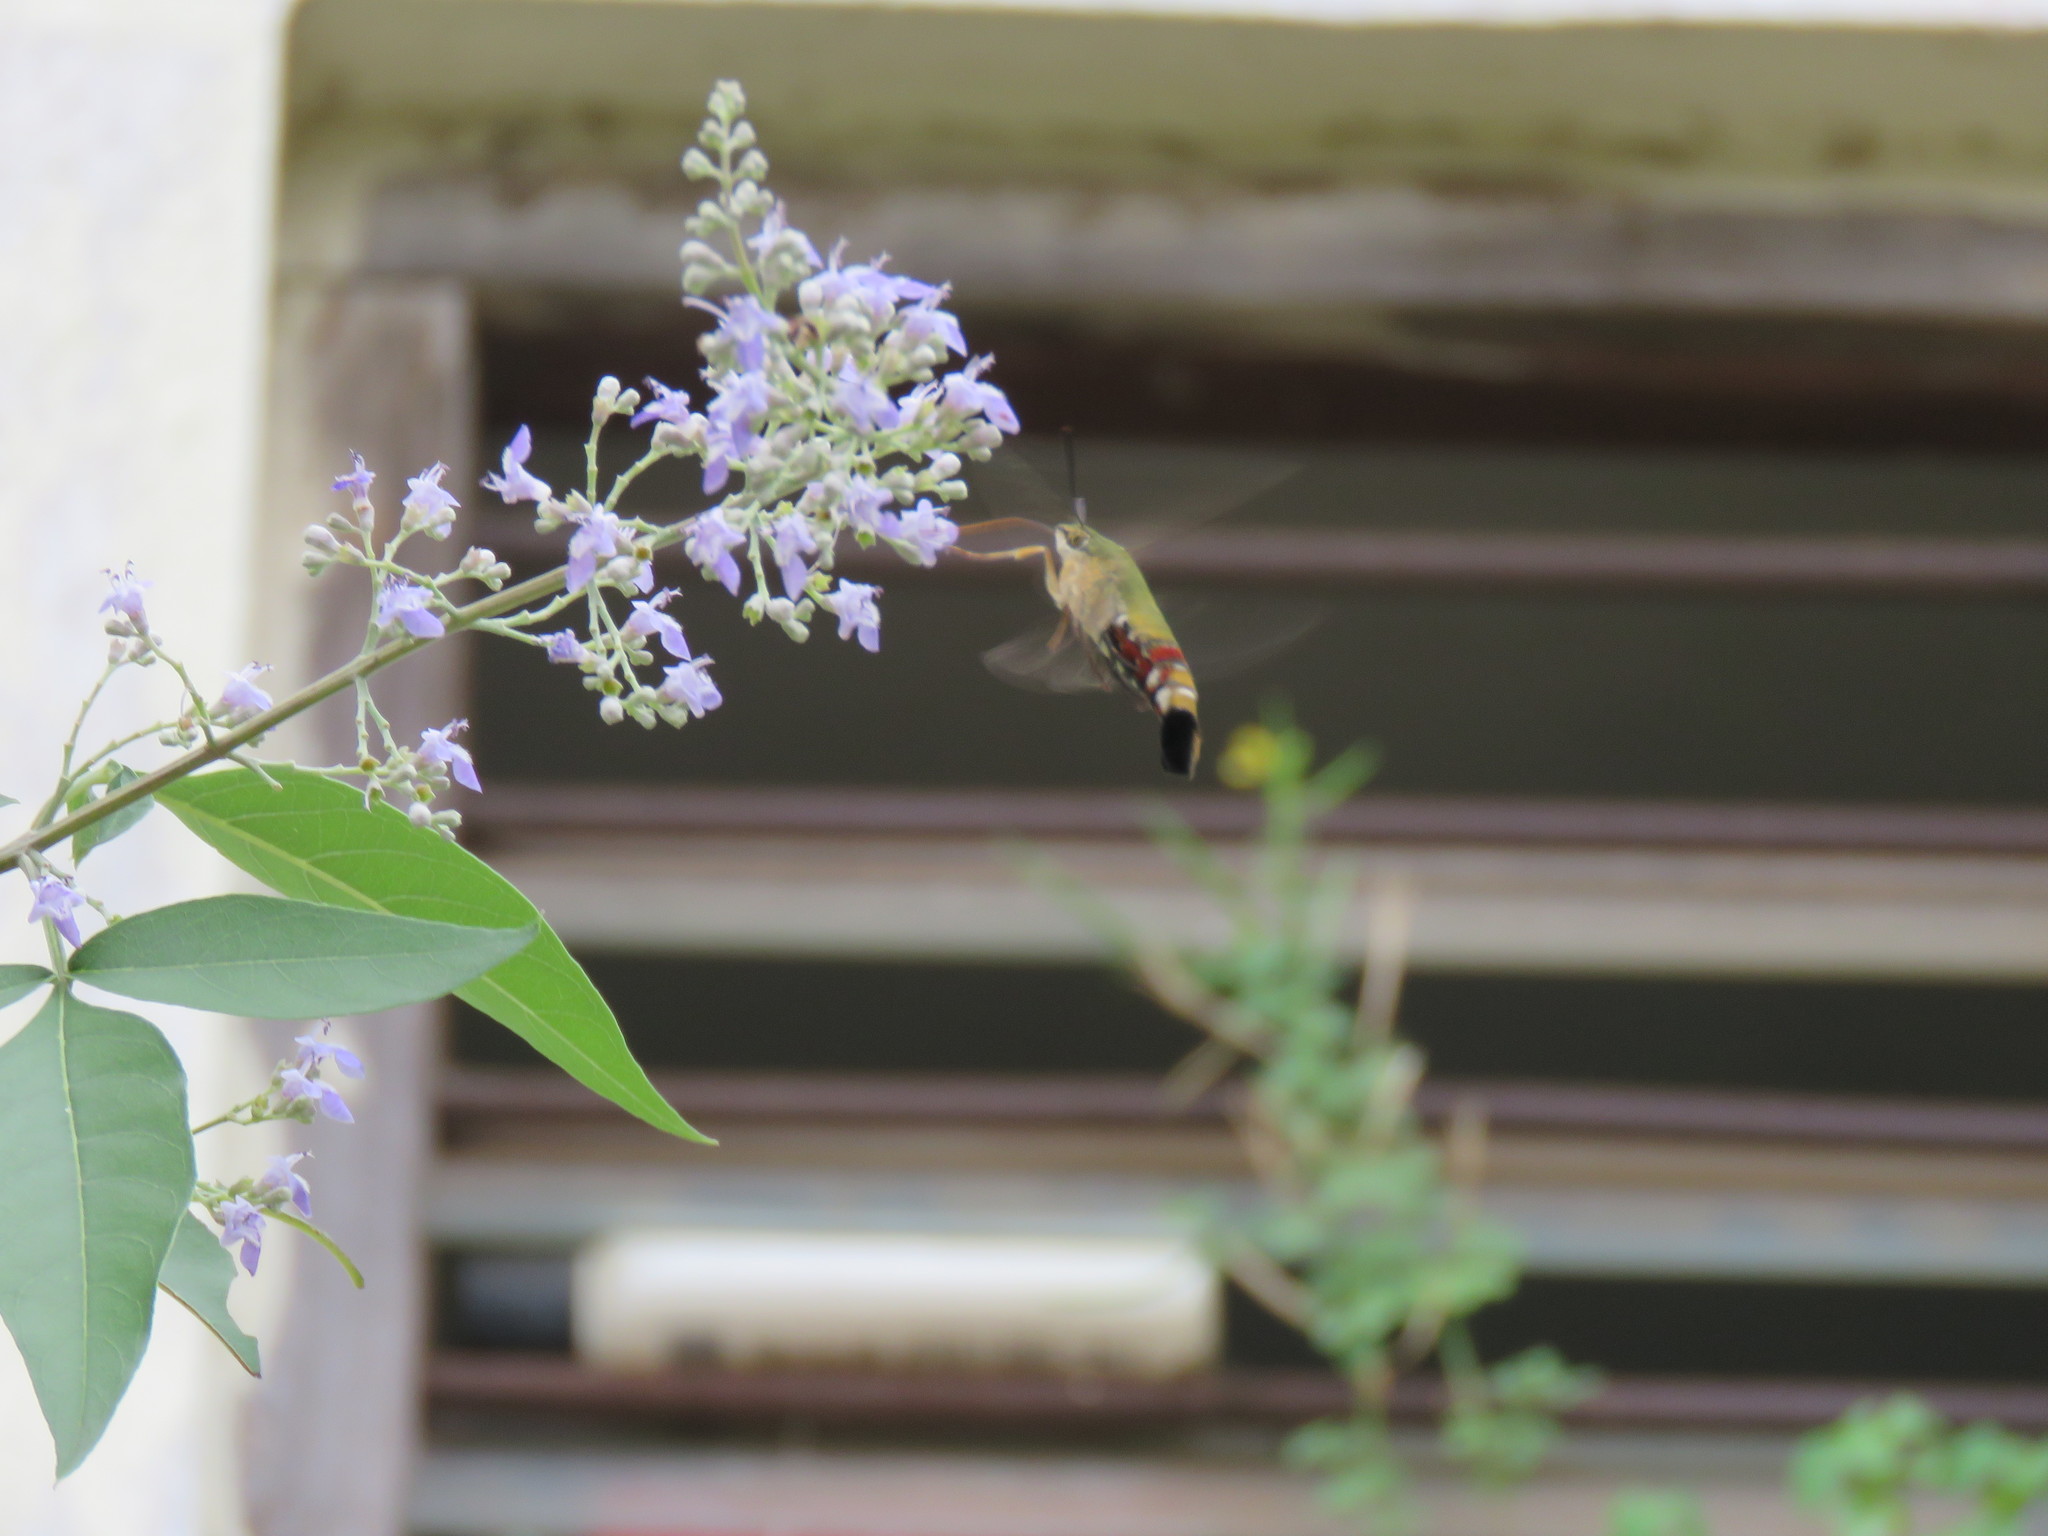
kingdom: Animalia
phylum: Arthropoda
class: Insecta
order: Lepidoptera
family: Sphingidae
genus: Cephonodes
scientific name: Cephonodes hylas
